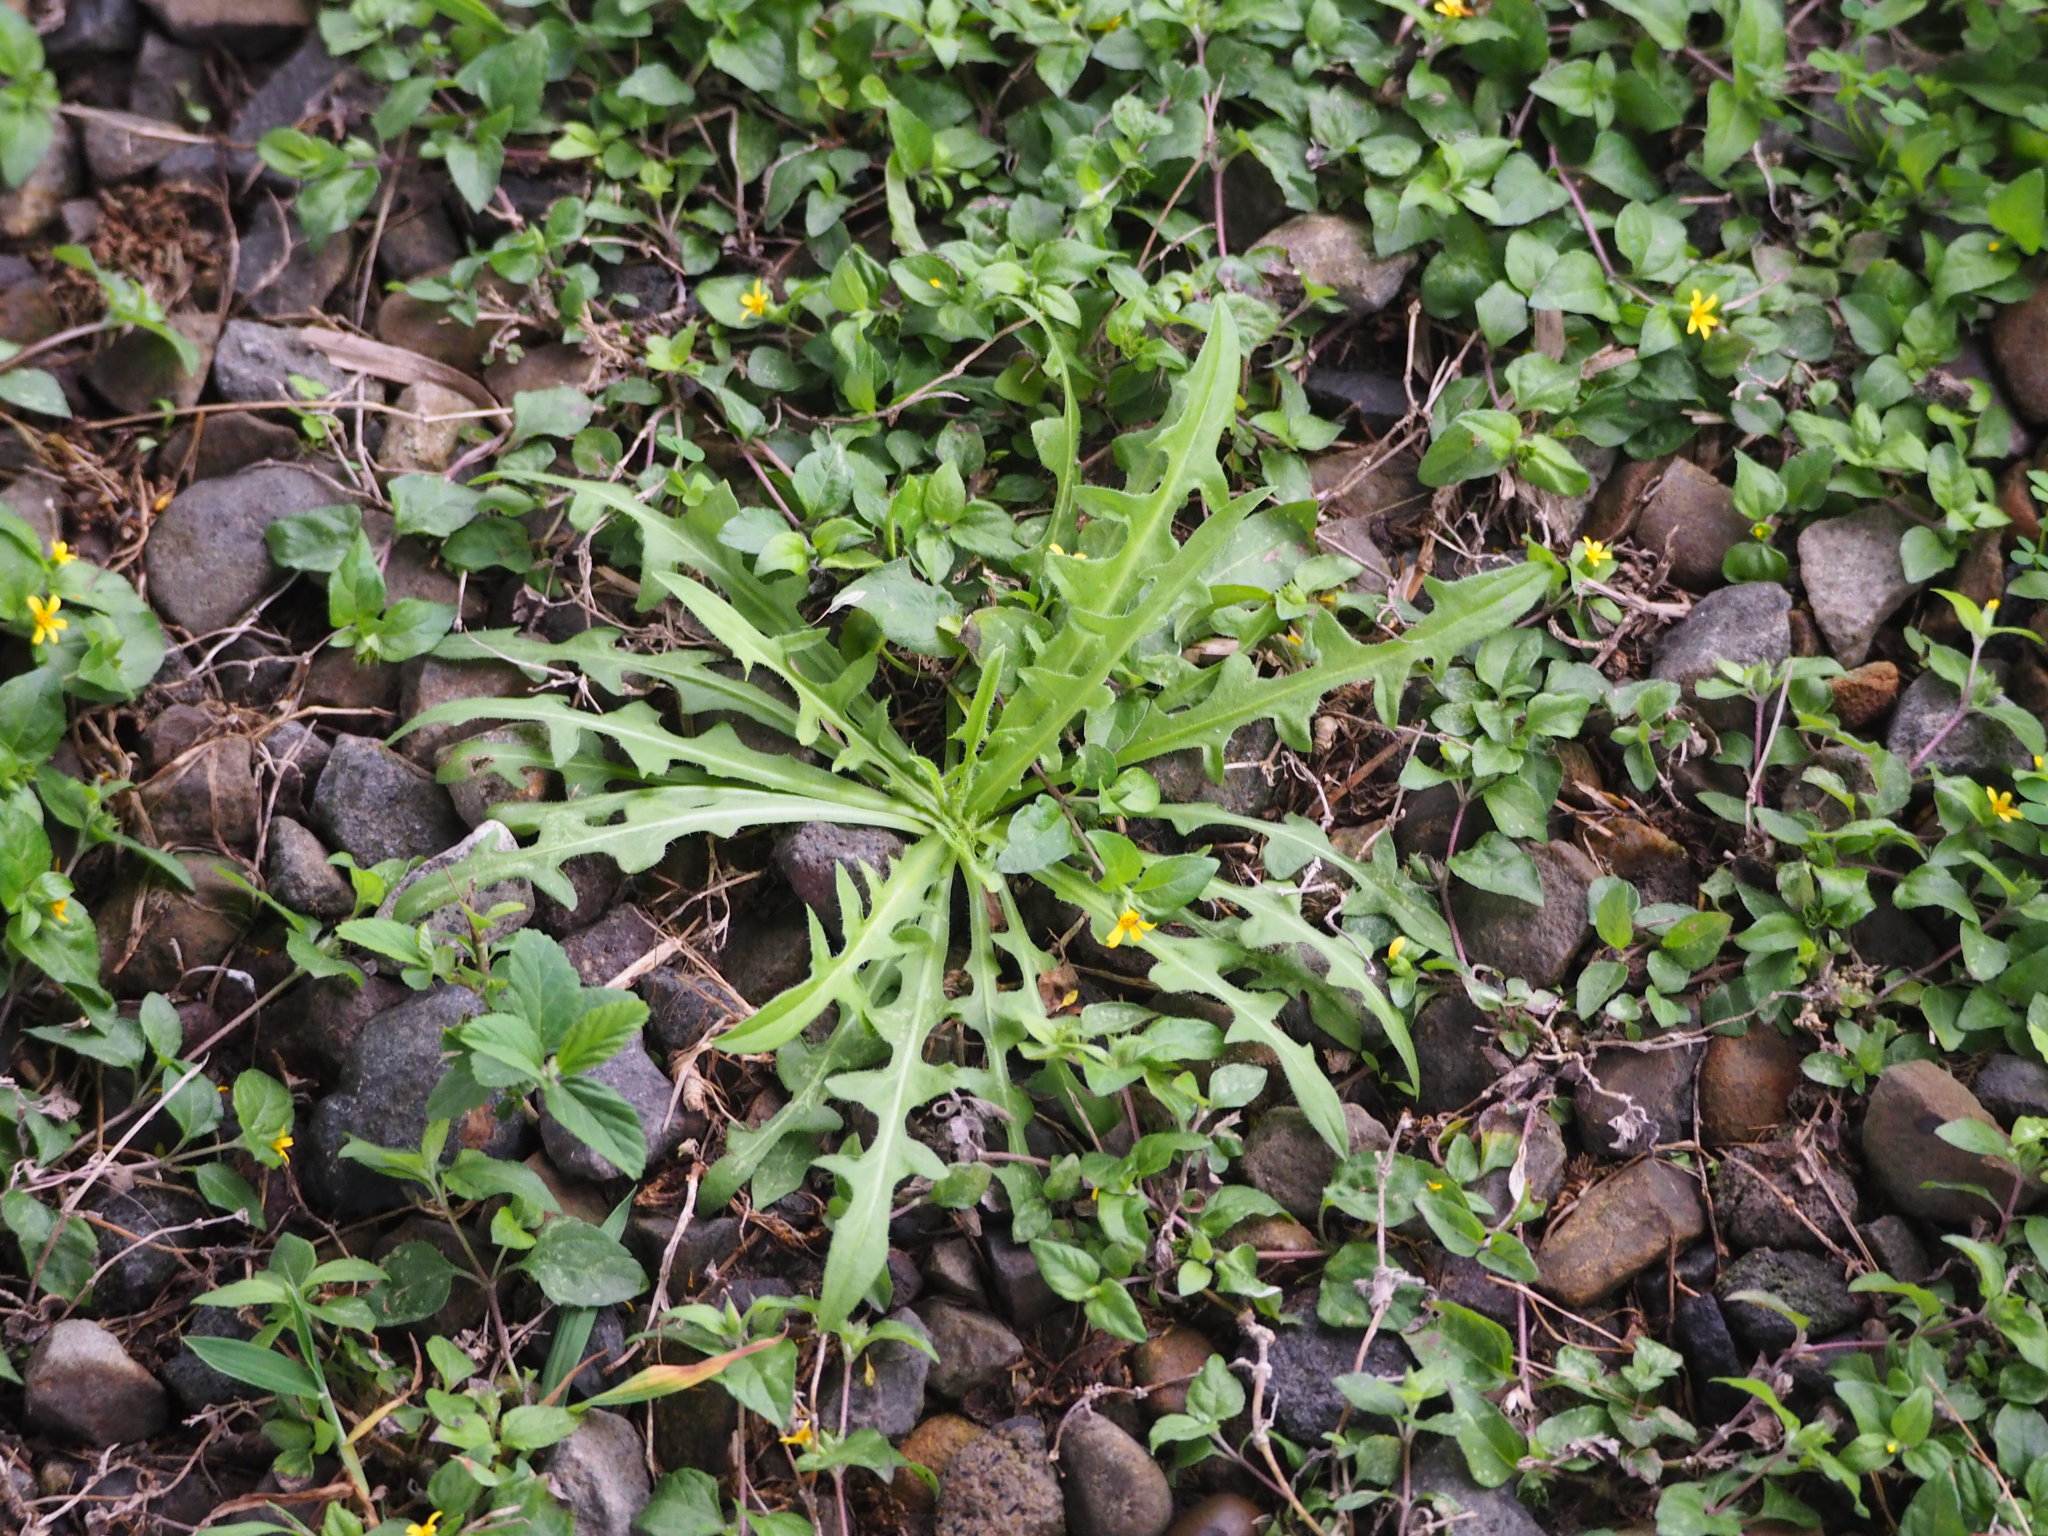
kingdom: Plantae
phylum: Tracheophyta
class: Magnoliopsida
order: Asterales
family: Asteraceae
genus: Lactuca
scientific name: Lactuca indica
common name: Wild lettuce
